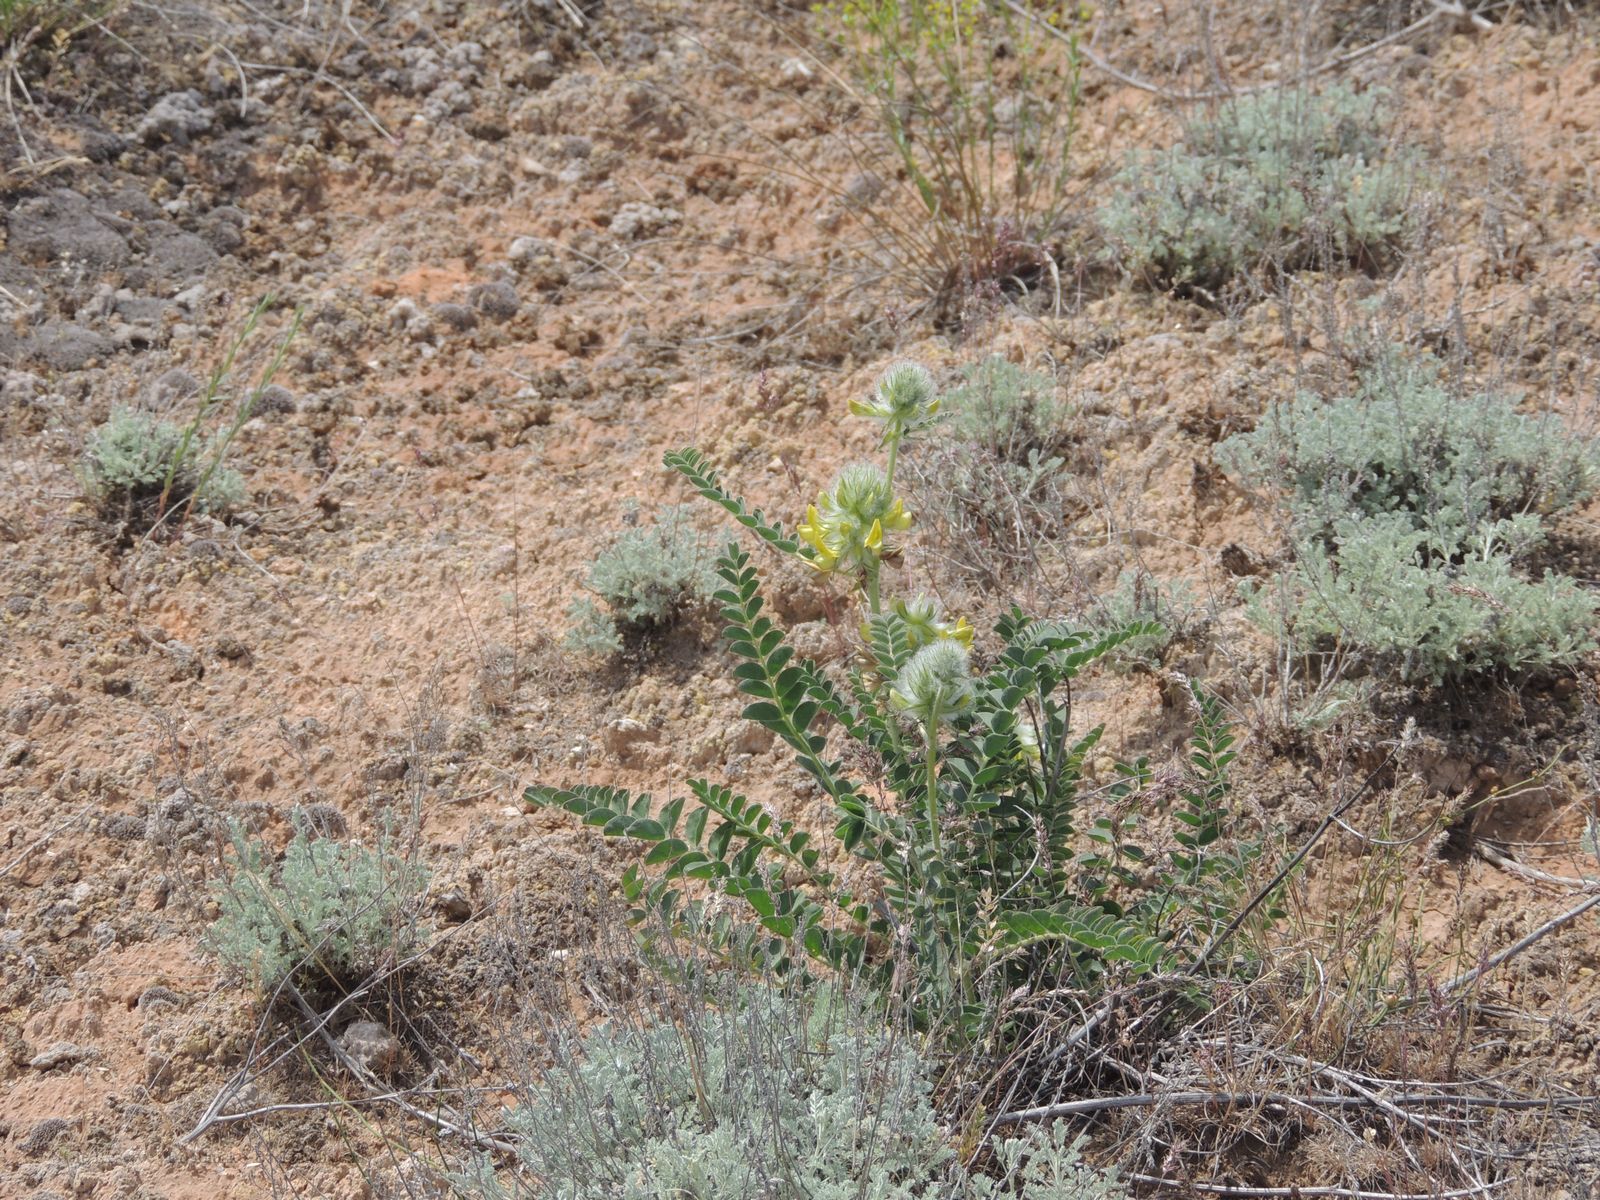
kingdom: Plantae
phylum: Tracheophyta
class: Magnoliopsida
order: Fabales
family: Fabaceae
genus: Astragalus
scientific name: Astragalus vulpinus
